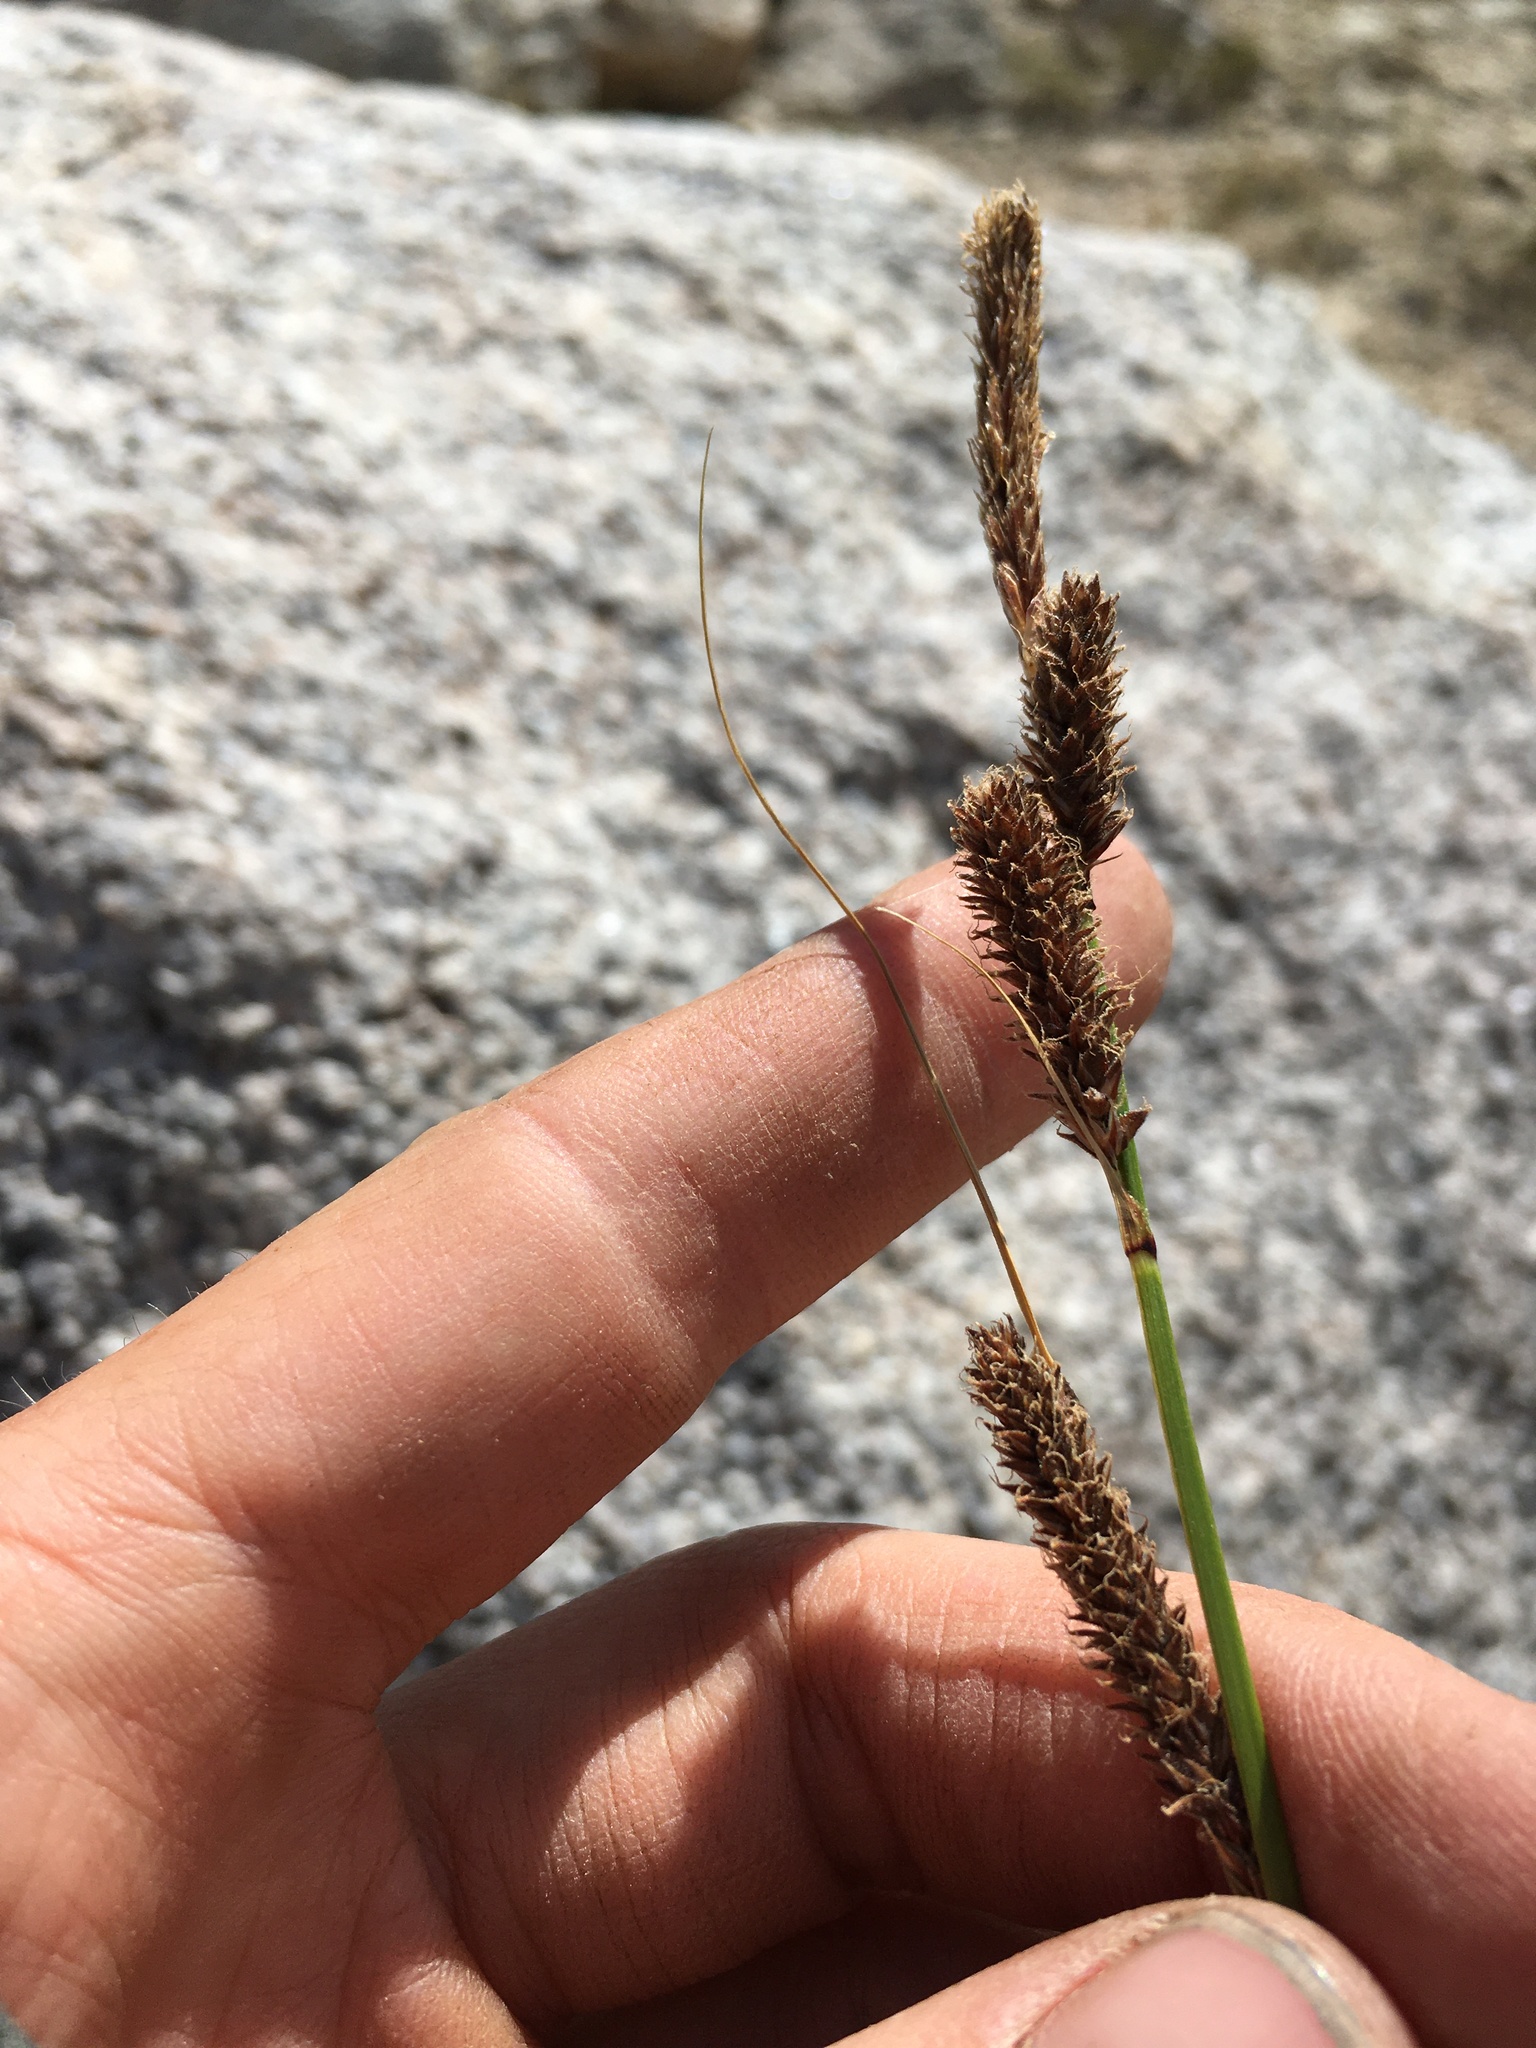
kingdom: Plantae
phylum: Tracheophyta
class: Liliopsida
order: Poales
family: Cyperaceae
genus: Carex
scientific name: Carex congdonii
